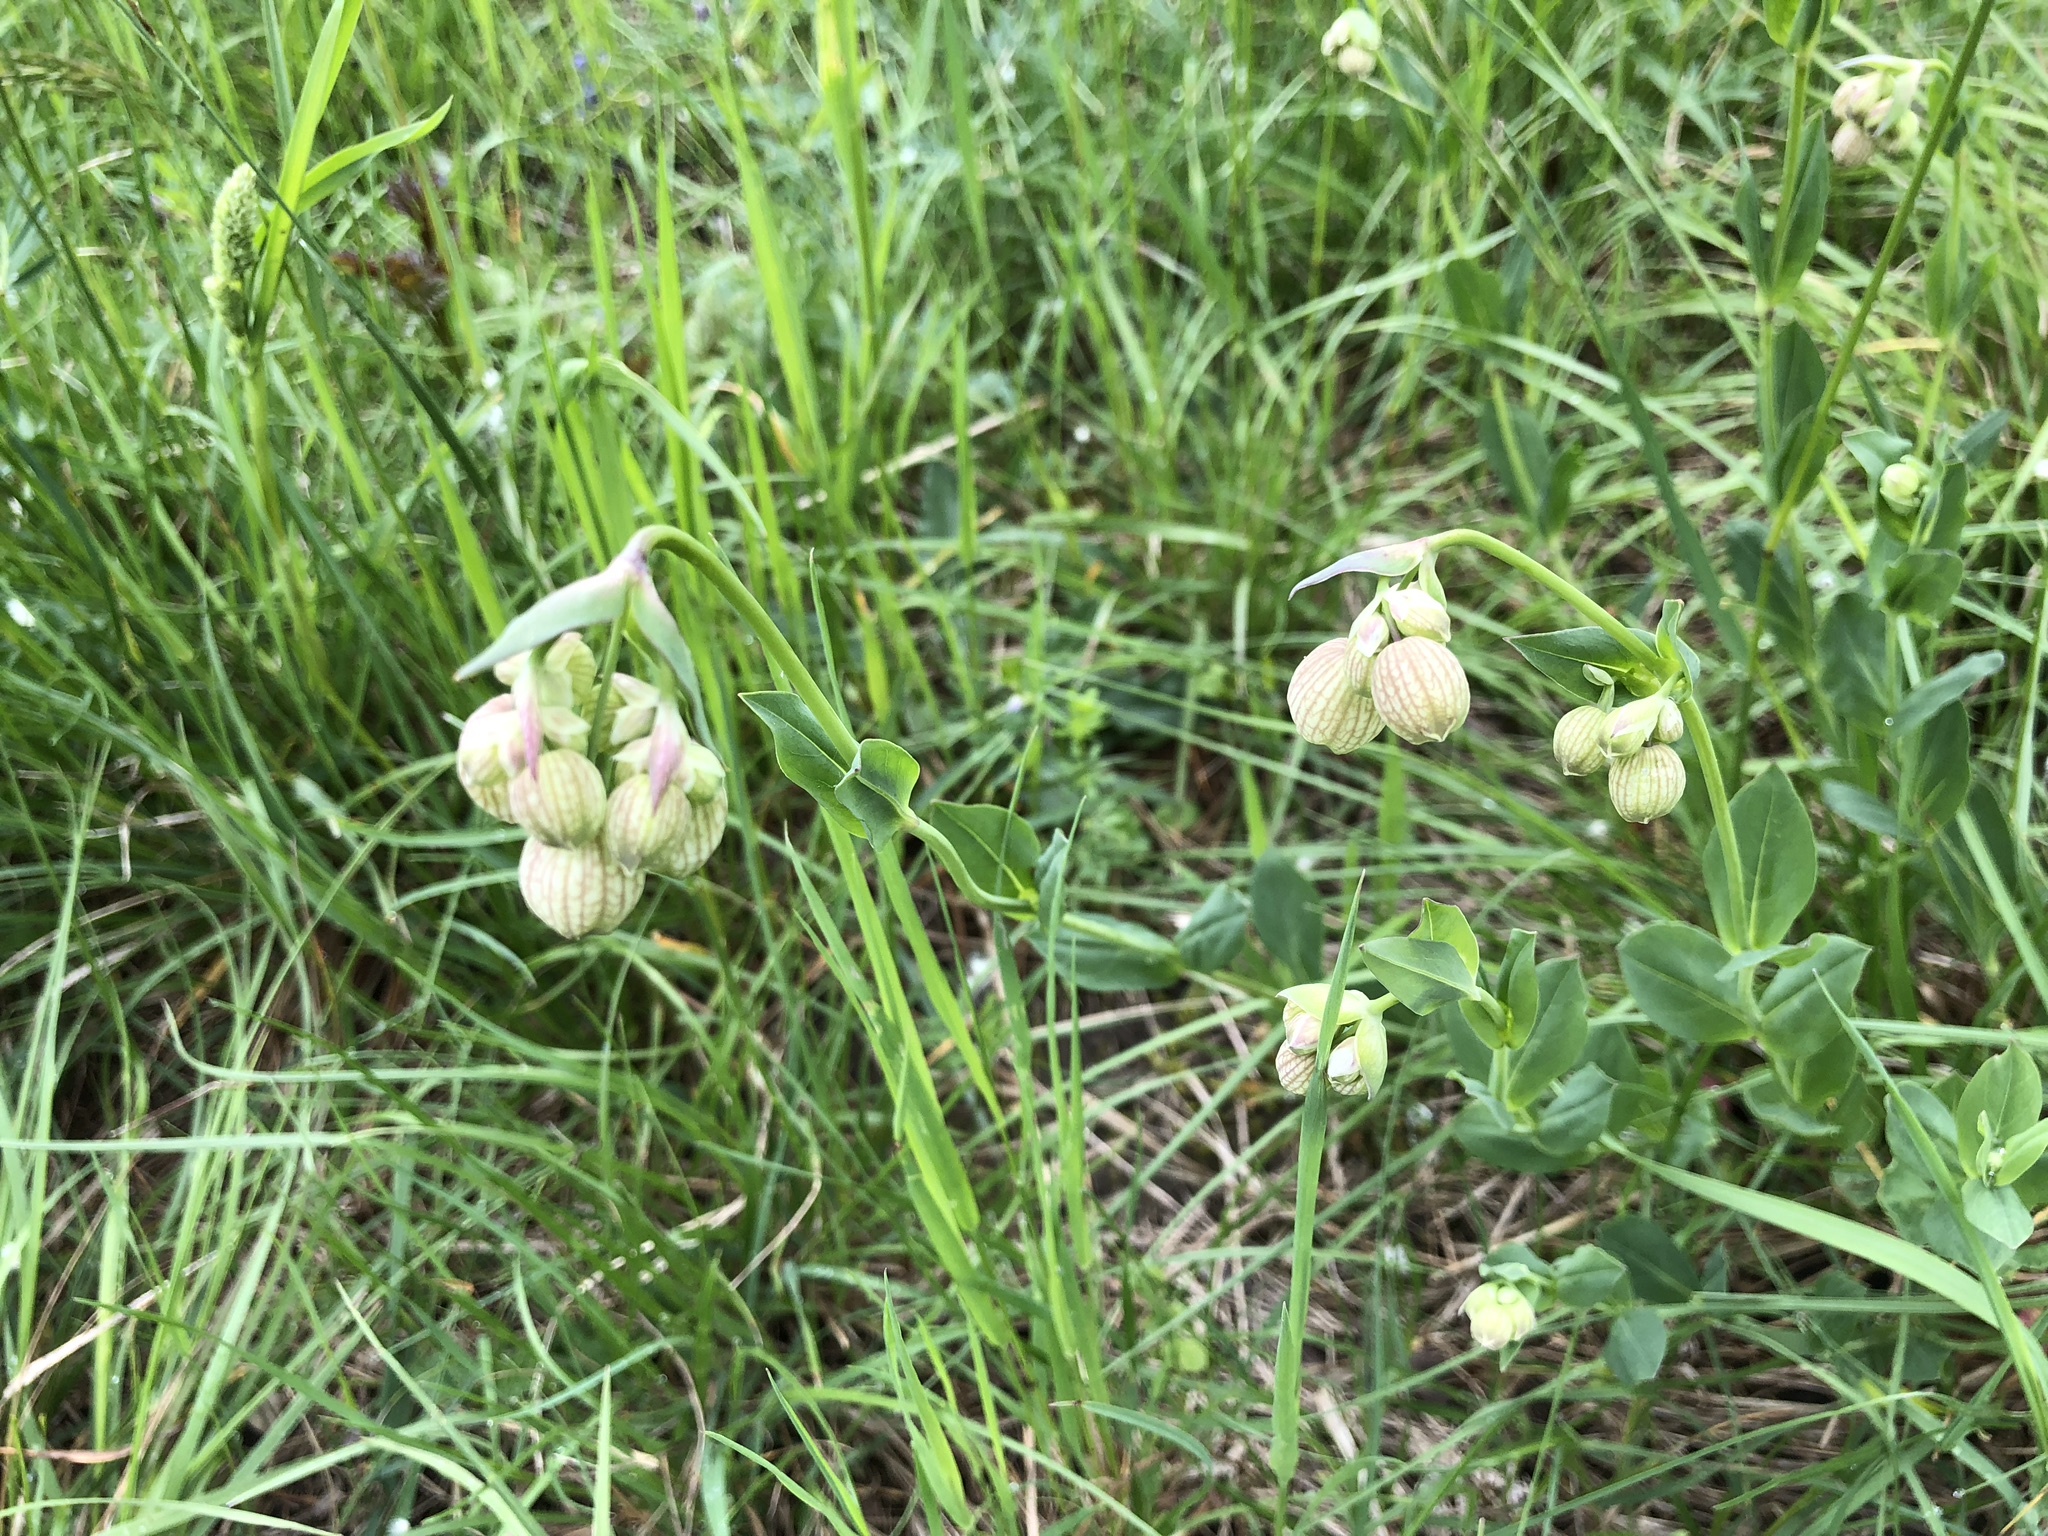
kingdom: Plantae
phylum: Tracheophyta
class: Magnoliopsida
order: Caryophyllales
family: Caryophyllaceae
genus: Silene
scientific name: Silene vulgaris
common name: Bladder campion
